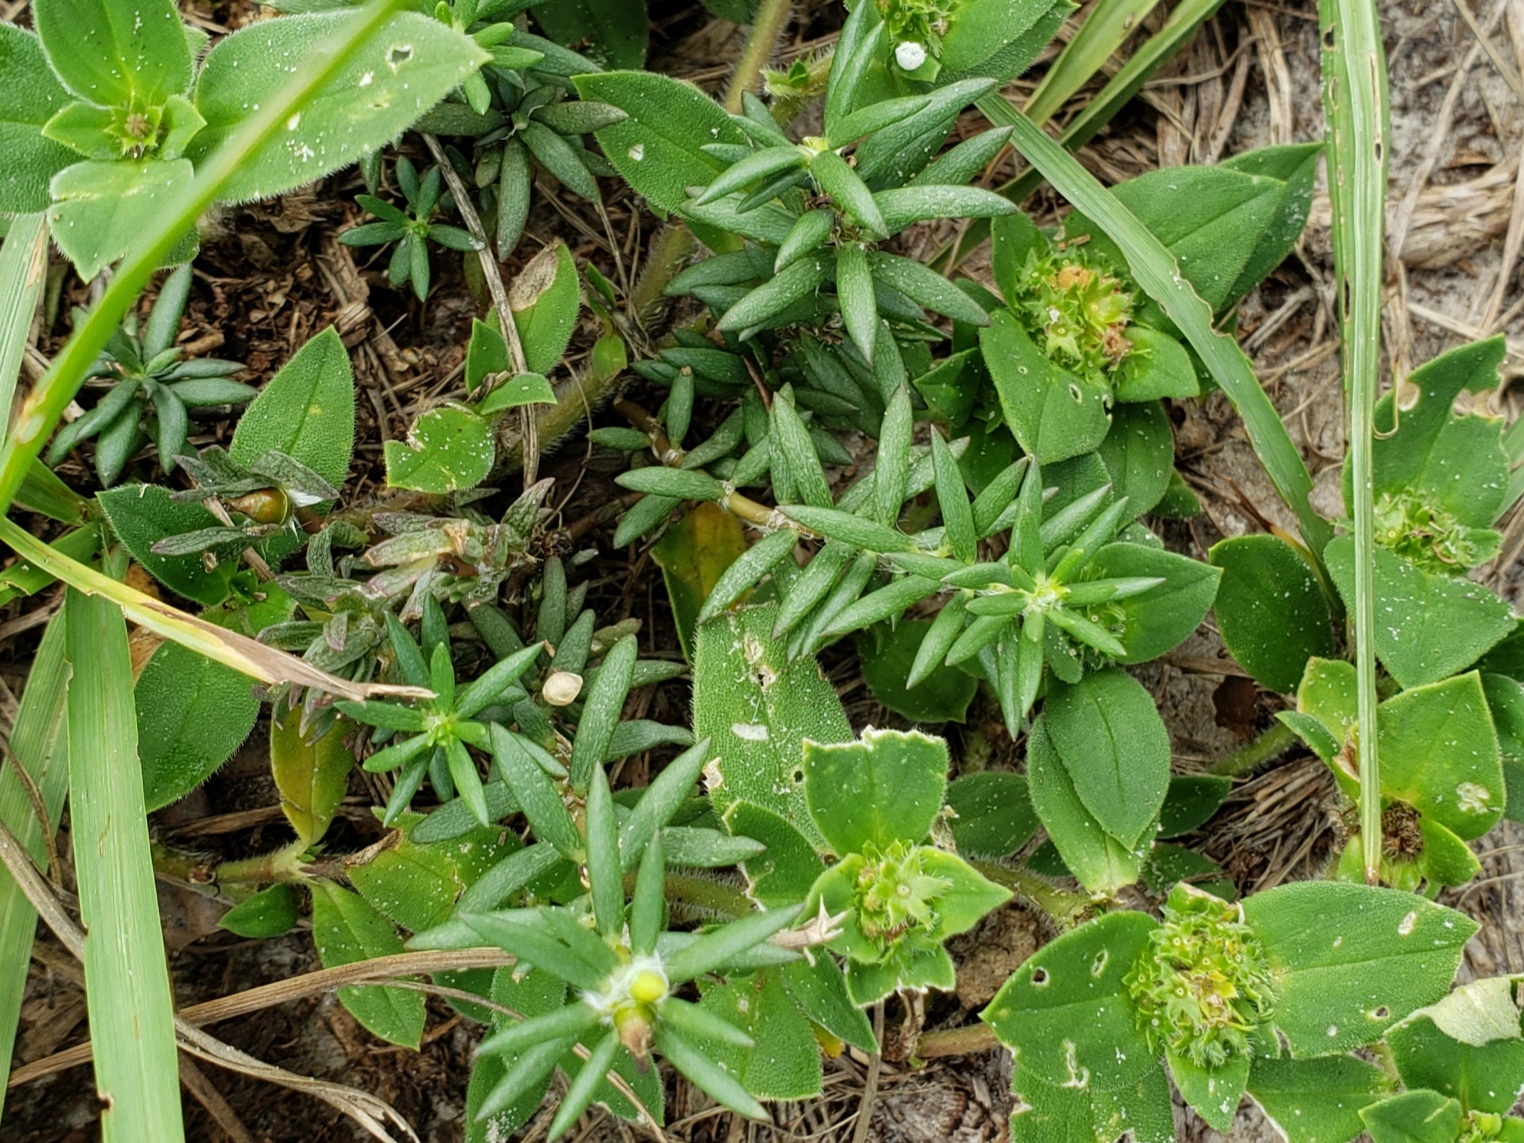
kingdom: Plantae
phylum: Tracheophyta
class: Magnoliopsida
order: Caryophyllales
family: Portulacaceae
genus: Portulaca
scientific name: Portulaca pilosa
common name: Kiss me quick
